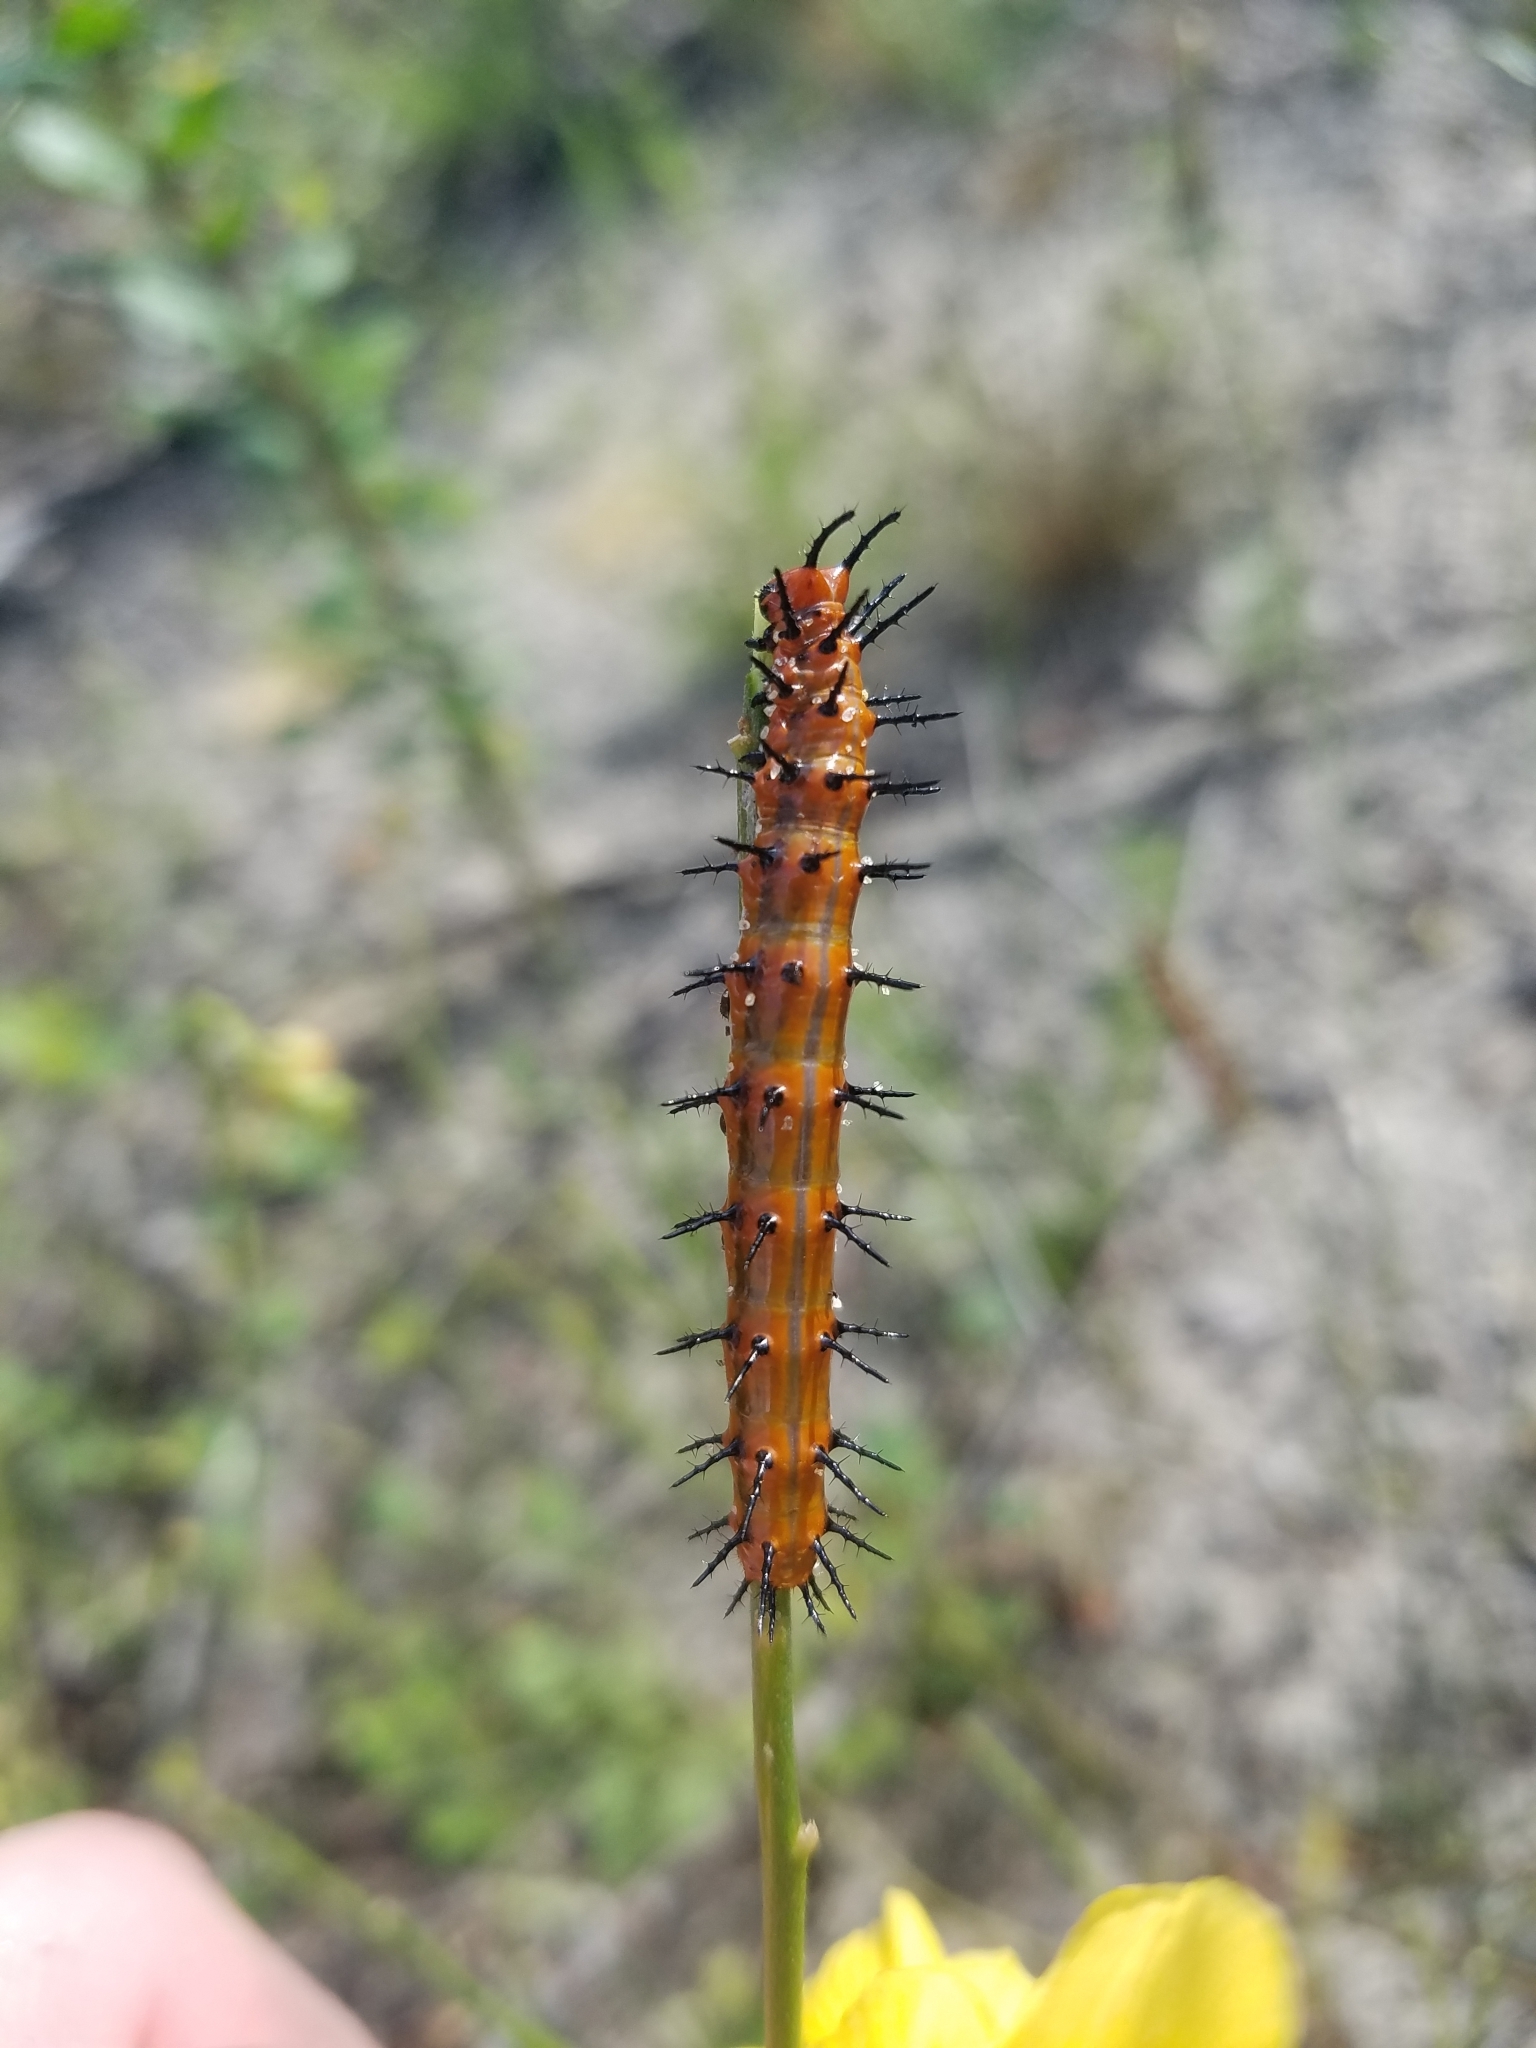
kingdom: Animalia
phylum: Arthropoda
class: Insecta
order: Lepidoptera
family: Nymphalidae
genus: Dione
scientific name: Dione vanillae
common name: Gulf fritillary
